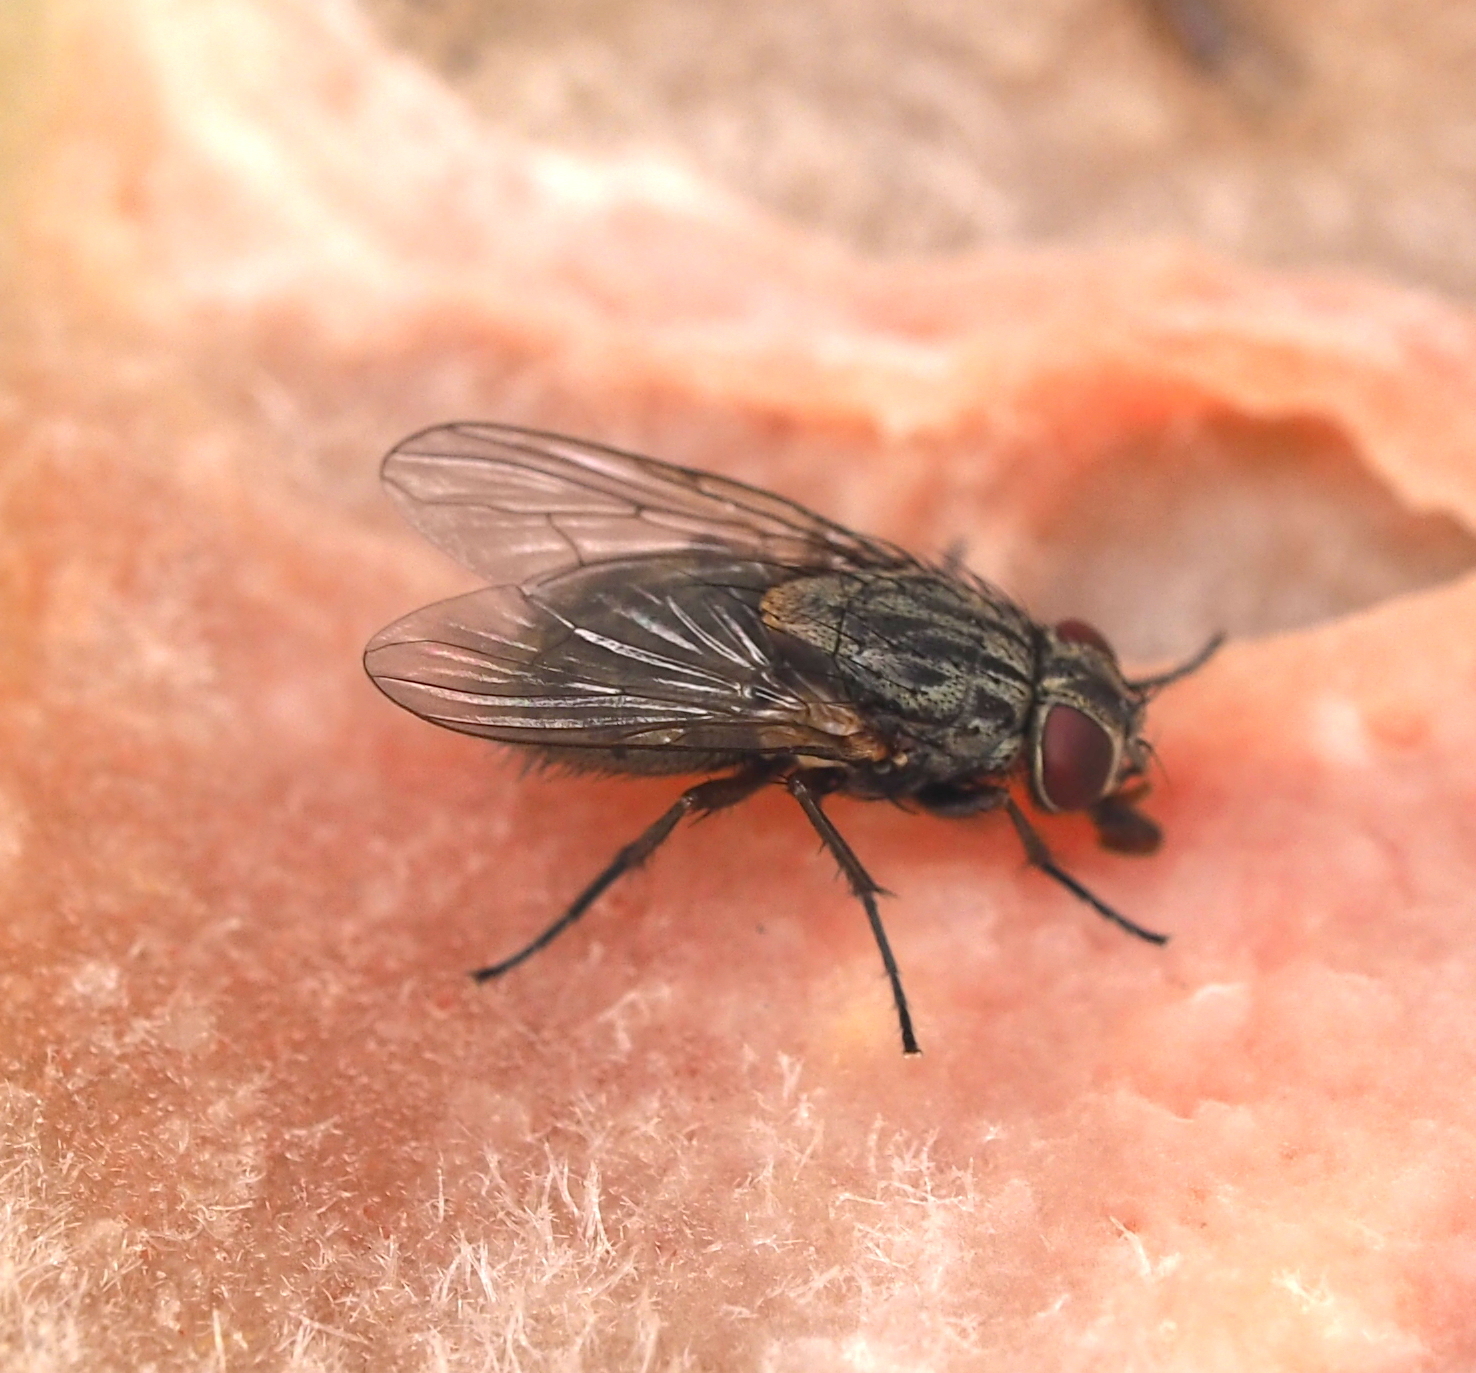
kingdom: Animalia
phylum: Arthropoda
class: Insecta
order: Diptera
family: Muscidae
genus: Muscina
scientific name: Muscina levida
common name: House fly
